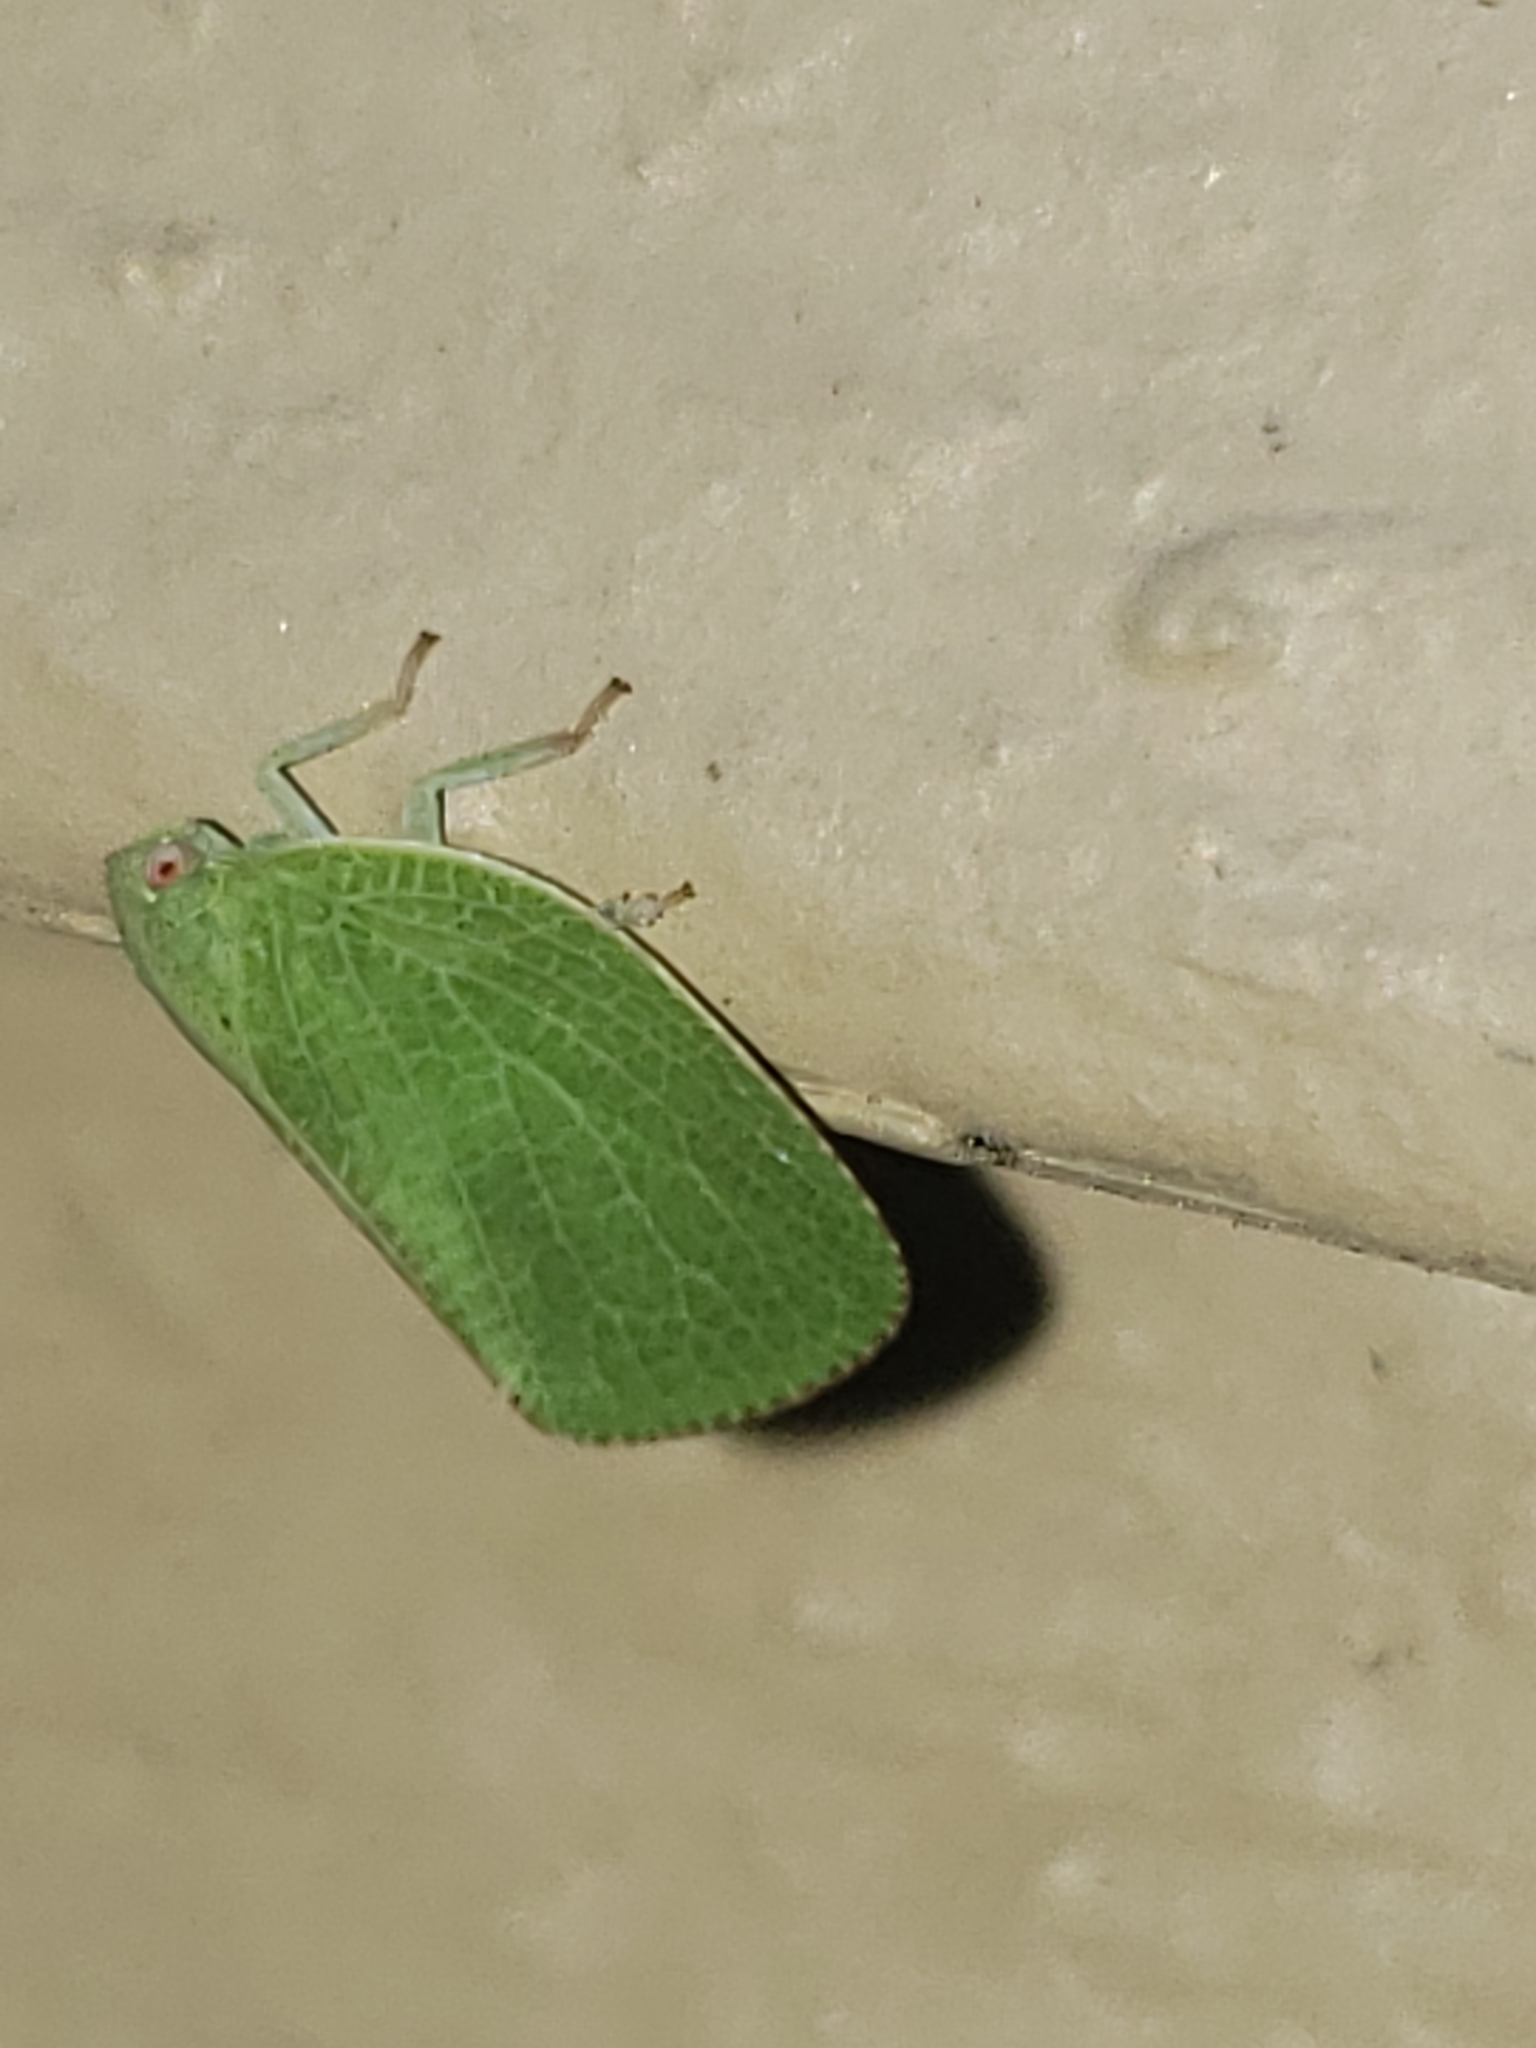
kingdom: Animalia
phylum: Arthropoda
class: Insecta
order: Hemiptera
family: Acanaloniidae
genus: Acanalonia
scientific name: Acanalonia conica
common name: Green cone-headed planthopper
